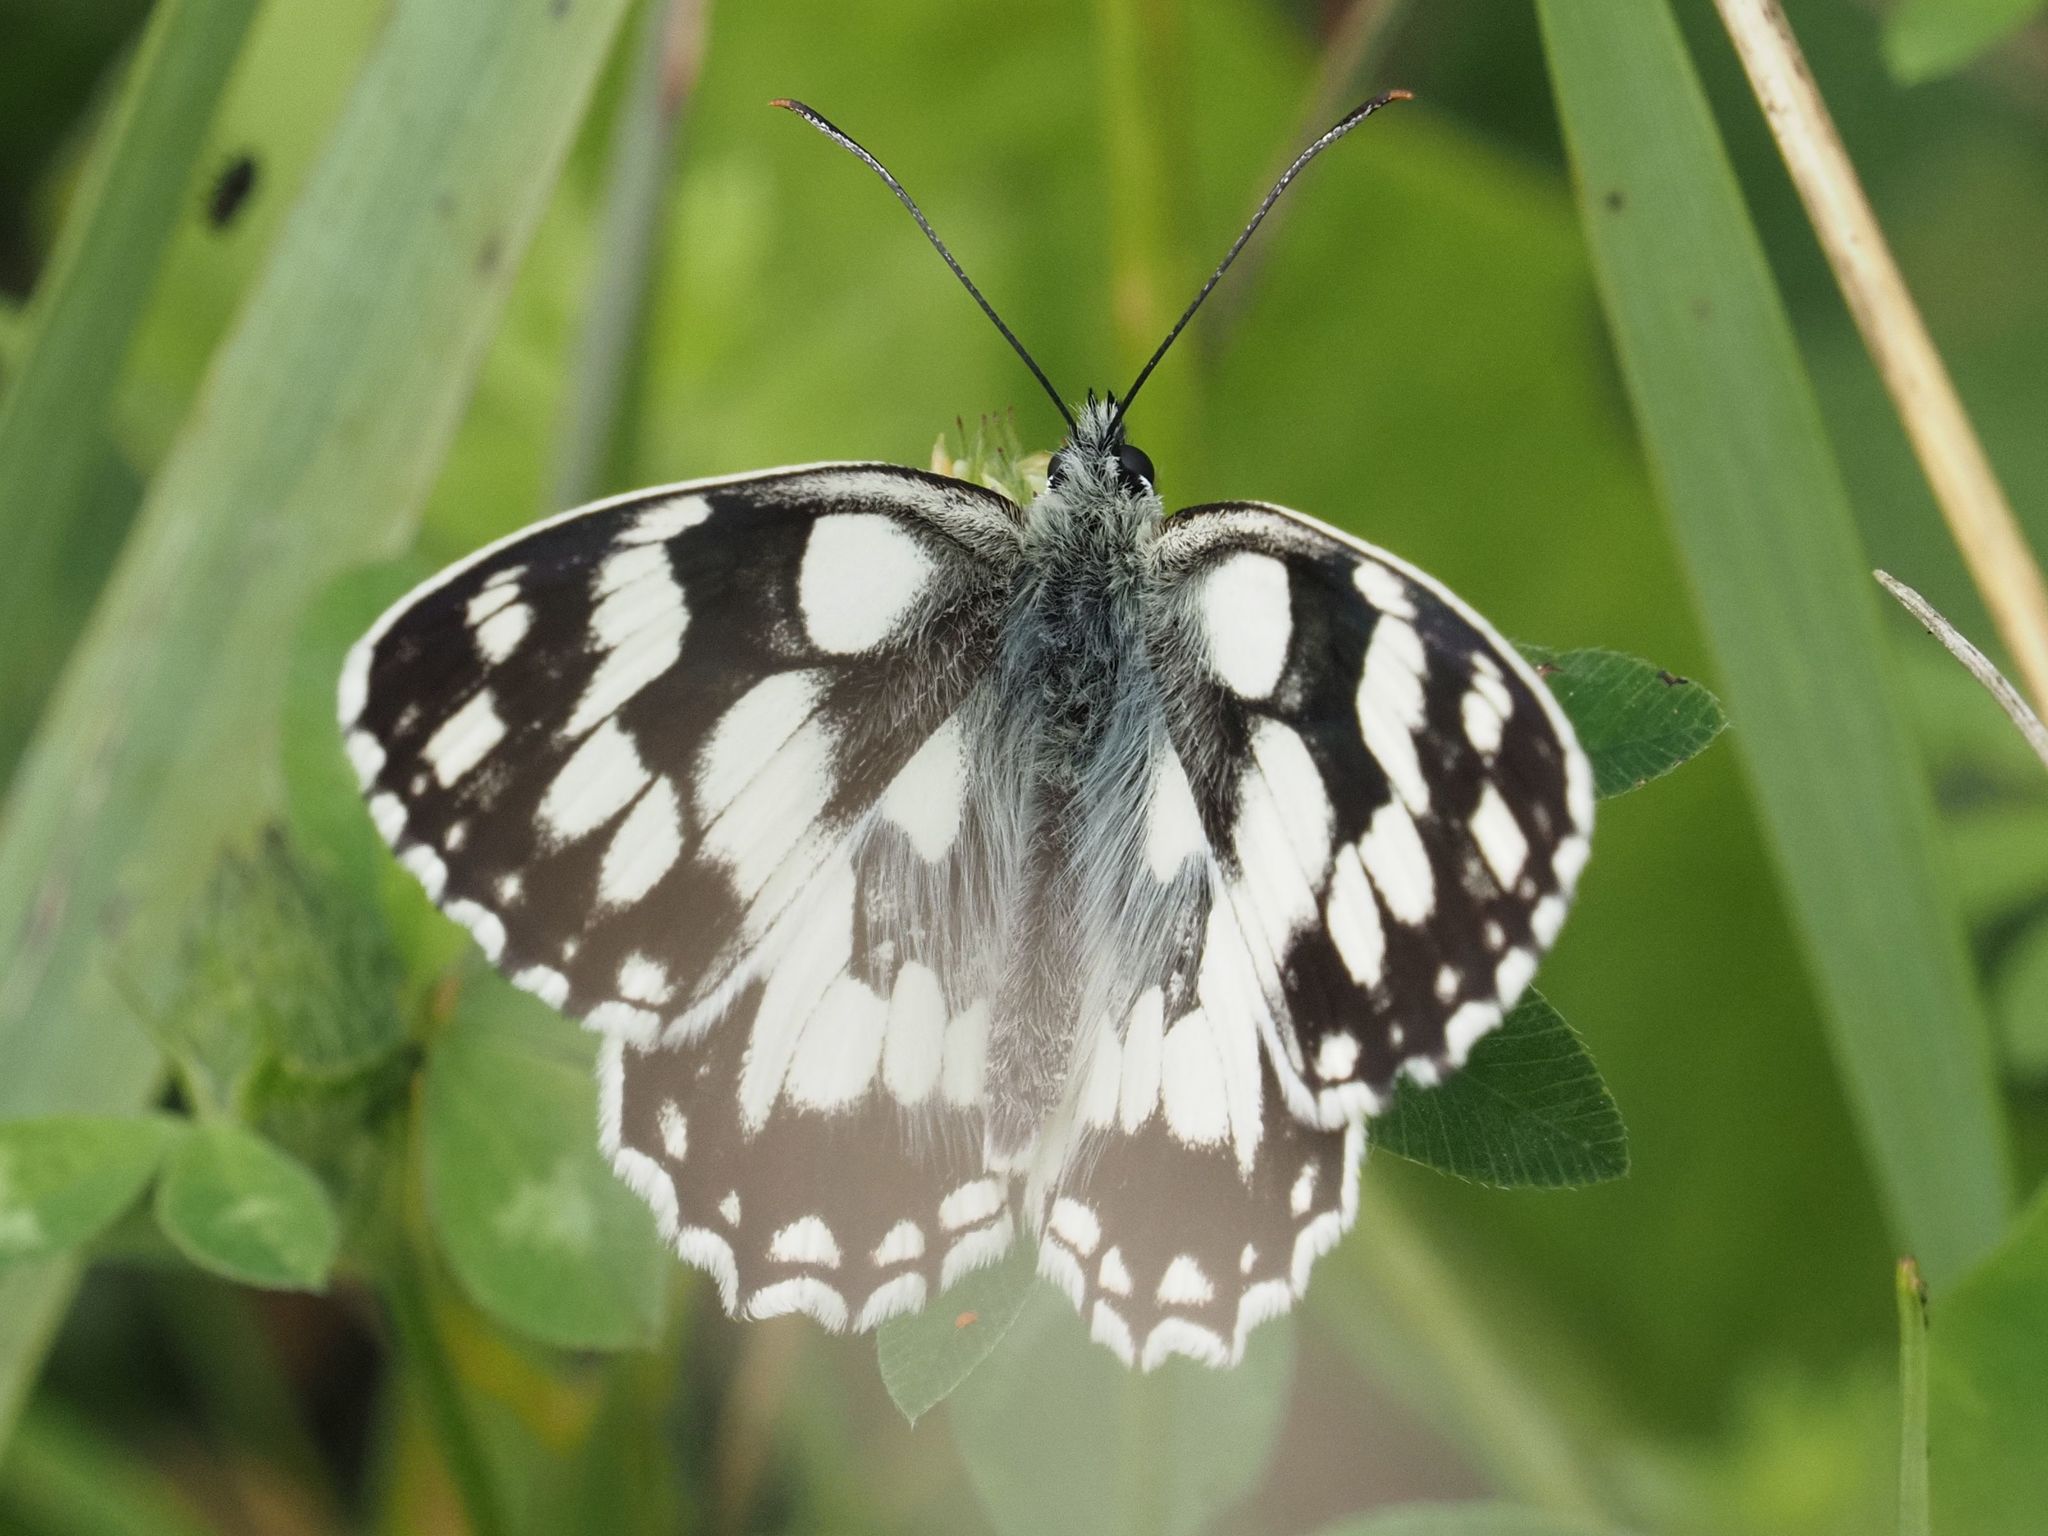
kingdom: Animalia
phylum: Arthropoda
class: Insecta
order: Lepidoptera
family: Nymphalidae
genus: Melanargia
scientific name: Melanargia galathea
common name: Marbled white
